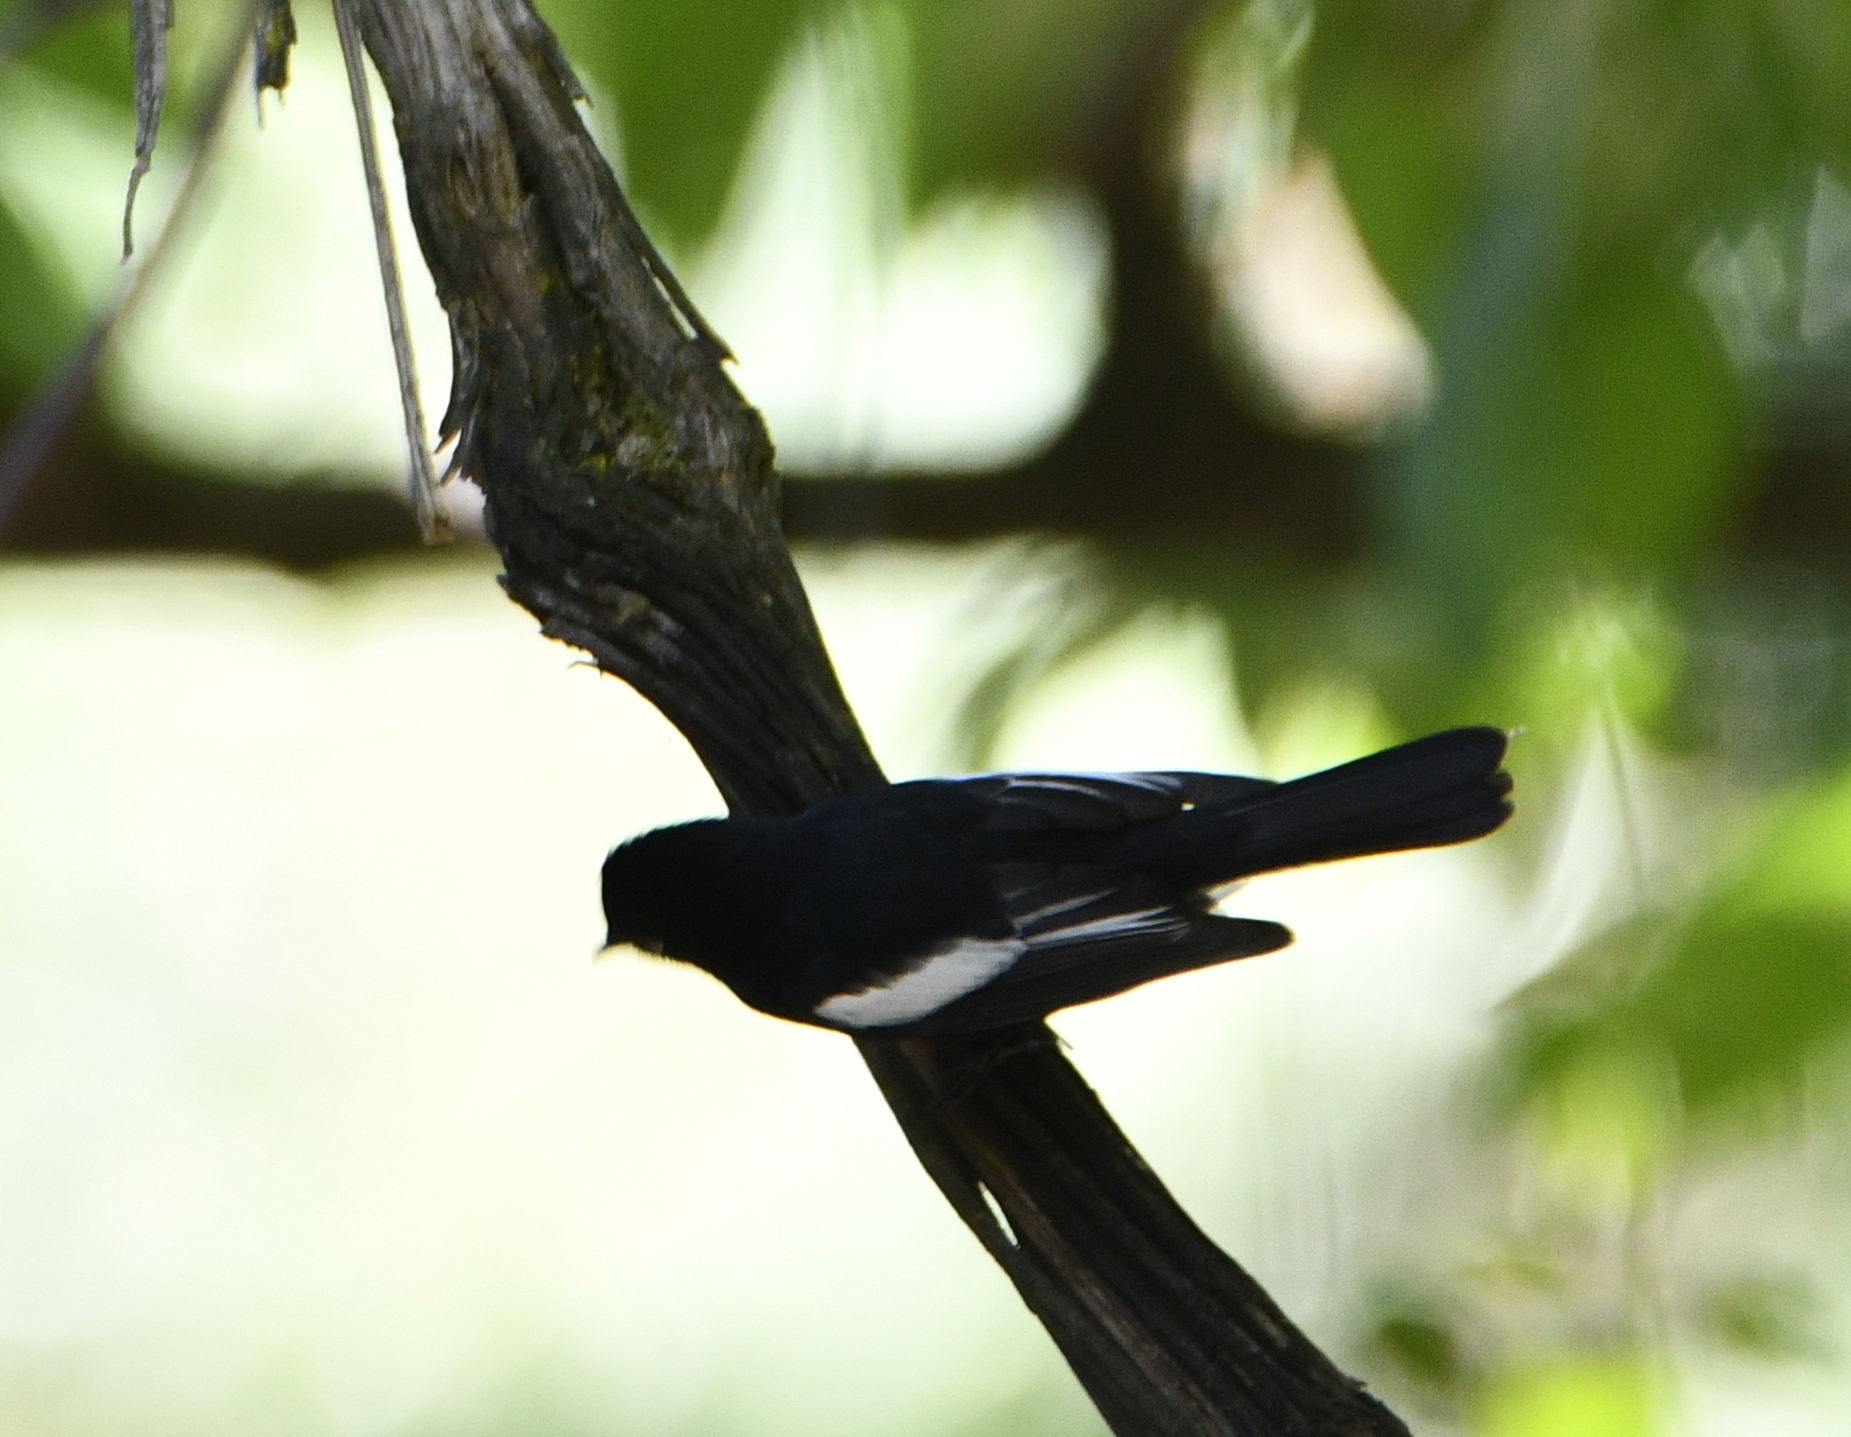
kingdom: Animalia
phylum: Chordata
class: Aves
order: Passeriformes
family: Parulidae
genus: Myioborus
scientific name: Myioborus pictus
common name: Painted whitestart
